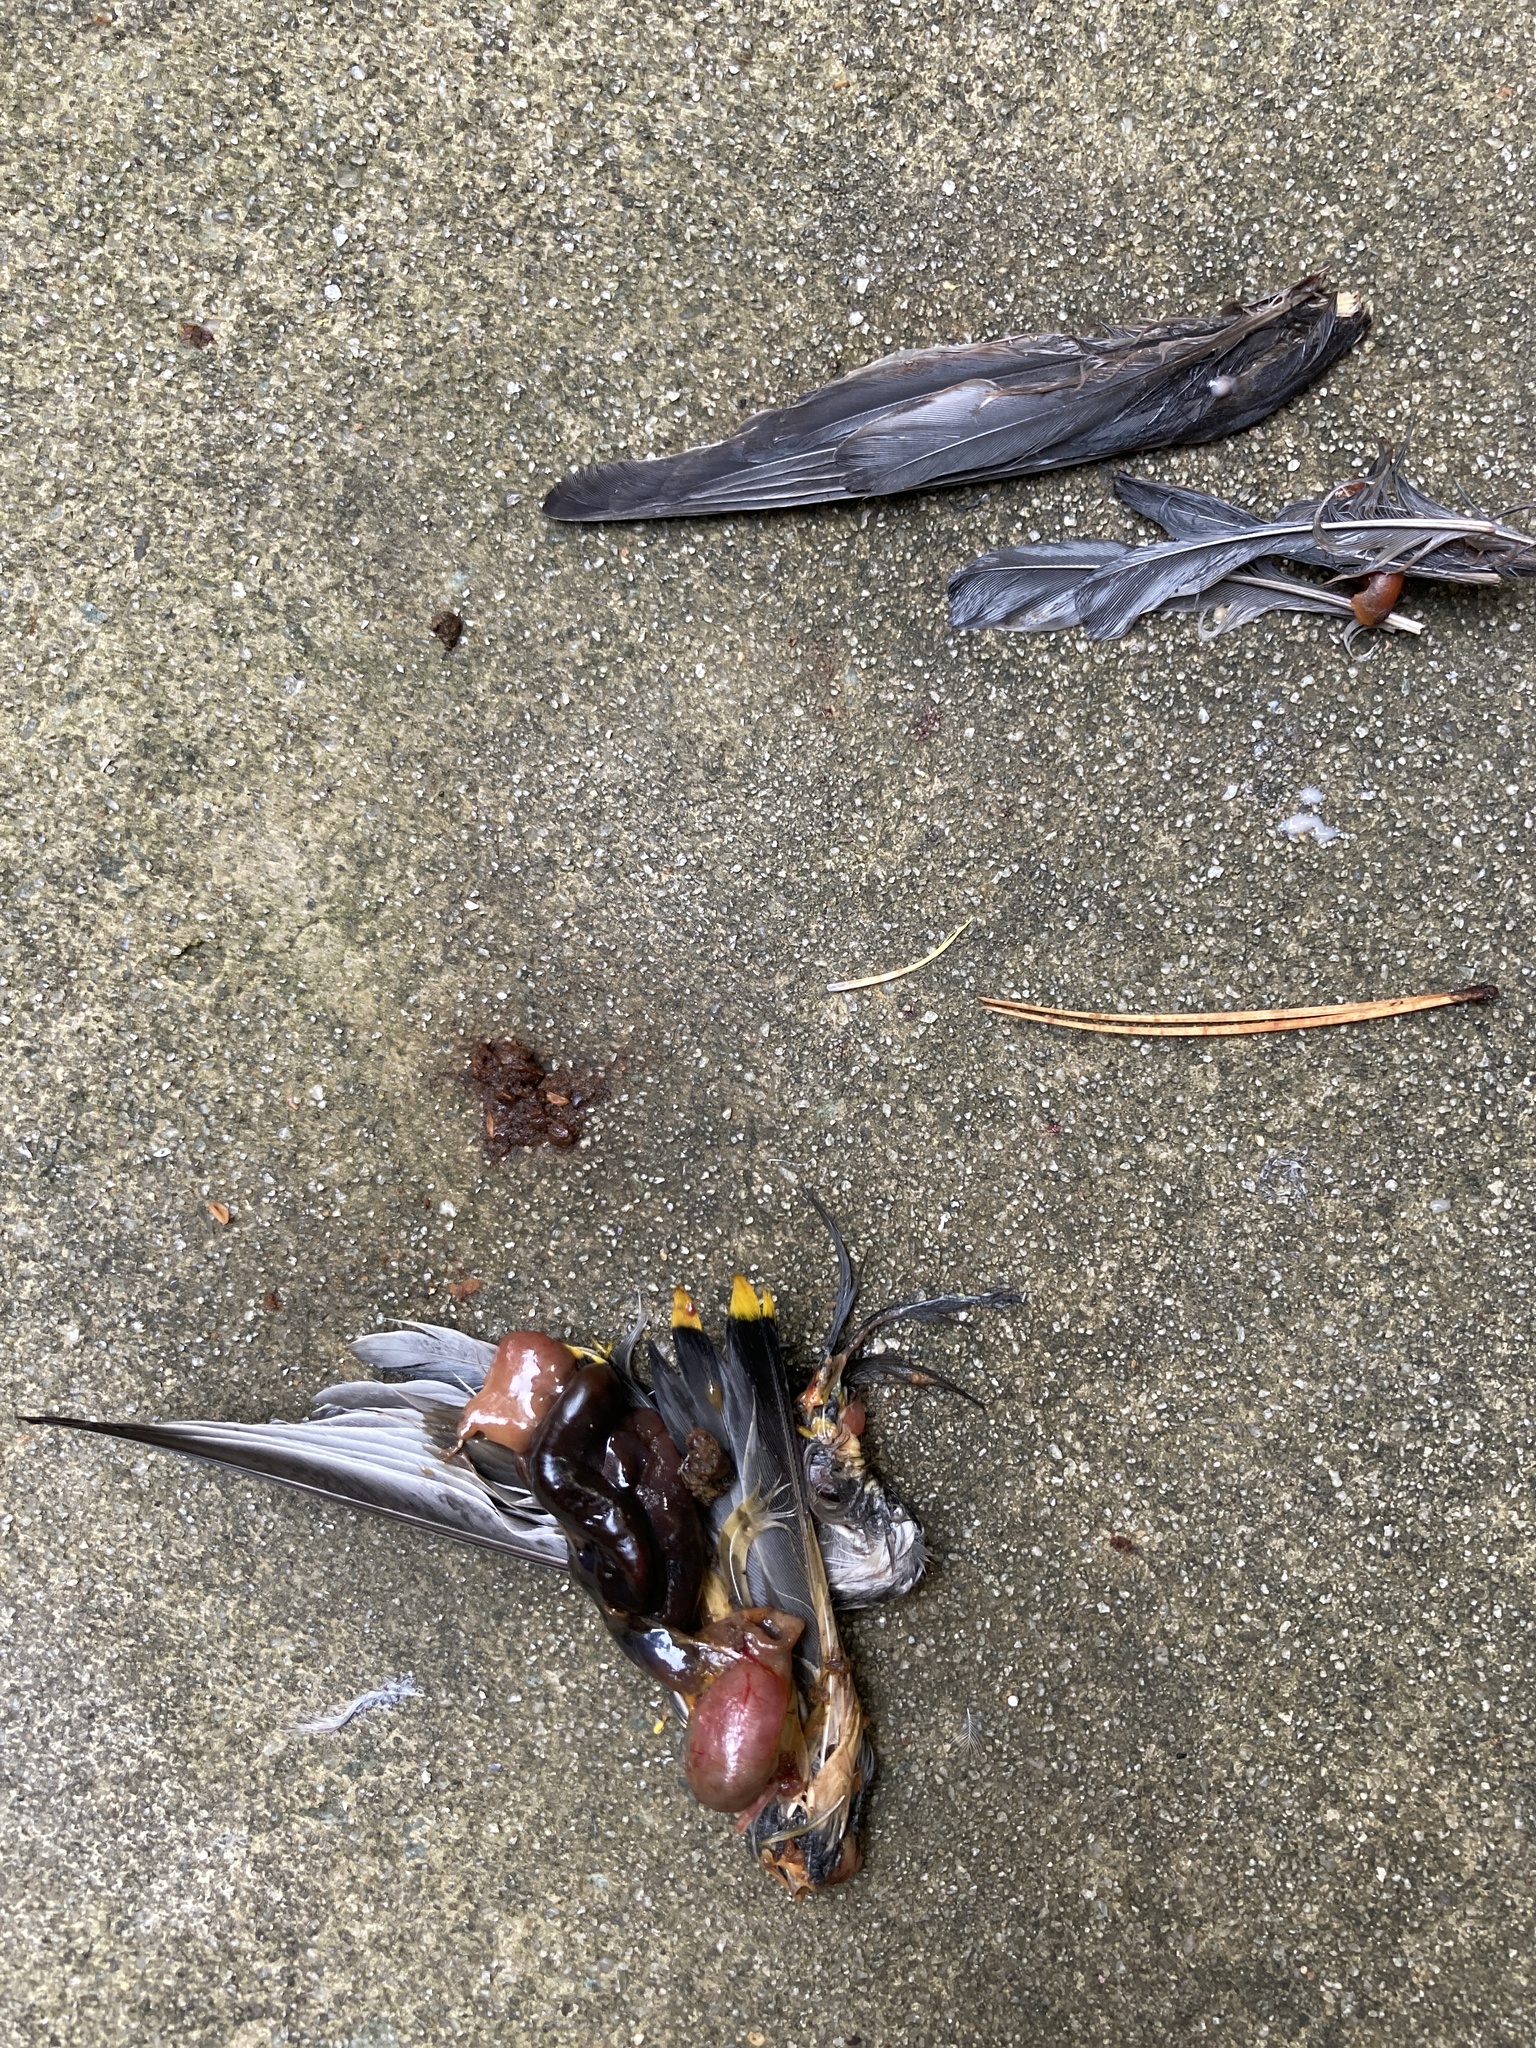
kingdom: Animalia
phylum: Chordata
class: Aves
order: Passeriformes
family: Bombycillidae
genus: Bombycilla
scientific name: Bombycilla cedrorum
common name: Cedar waxwing
